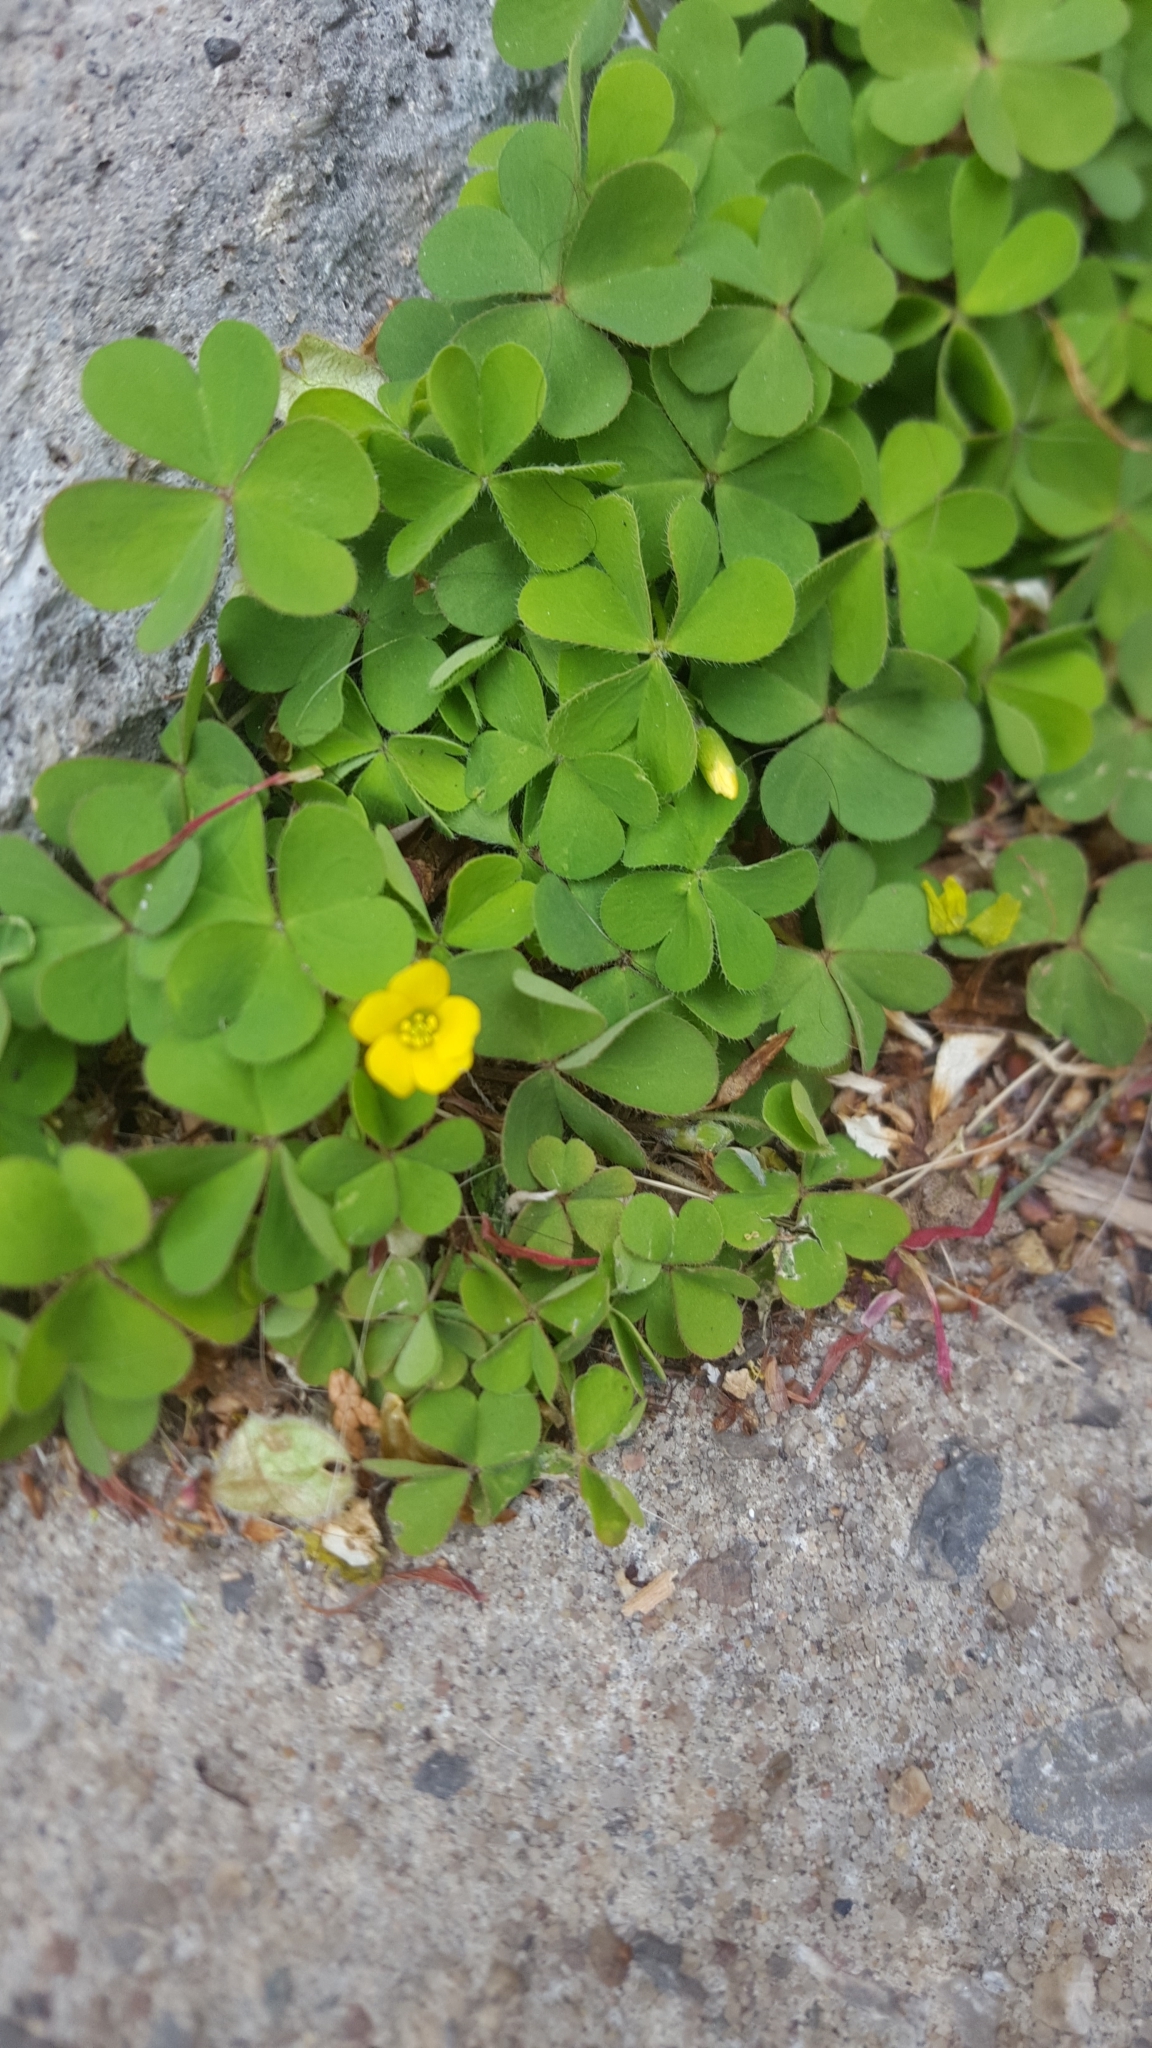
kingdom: Plantae
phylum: Tracheophyta
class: Magnoliopsida
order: Oxalidales
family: Oxalidaceae
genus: Oxalis
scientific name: Oxalis corniculata
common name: Procumbent yellow-sorrel
